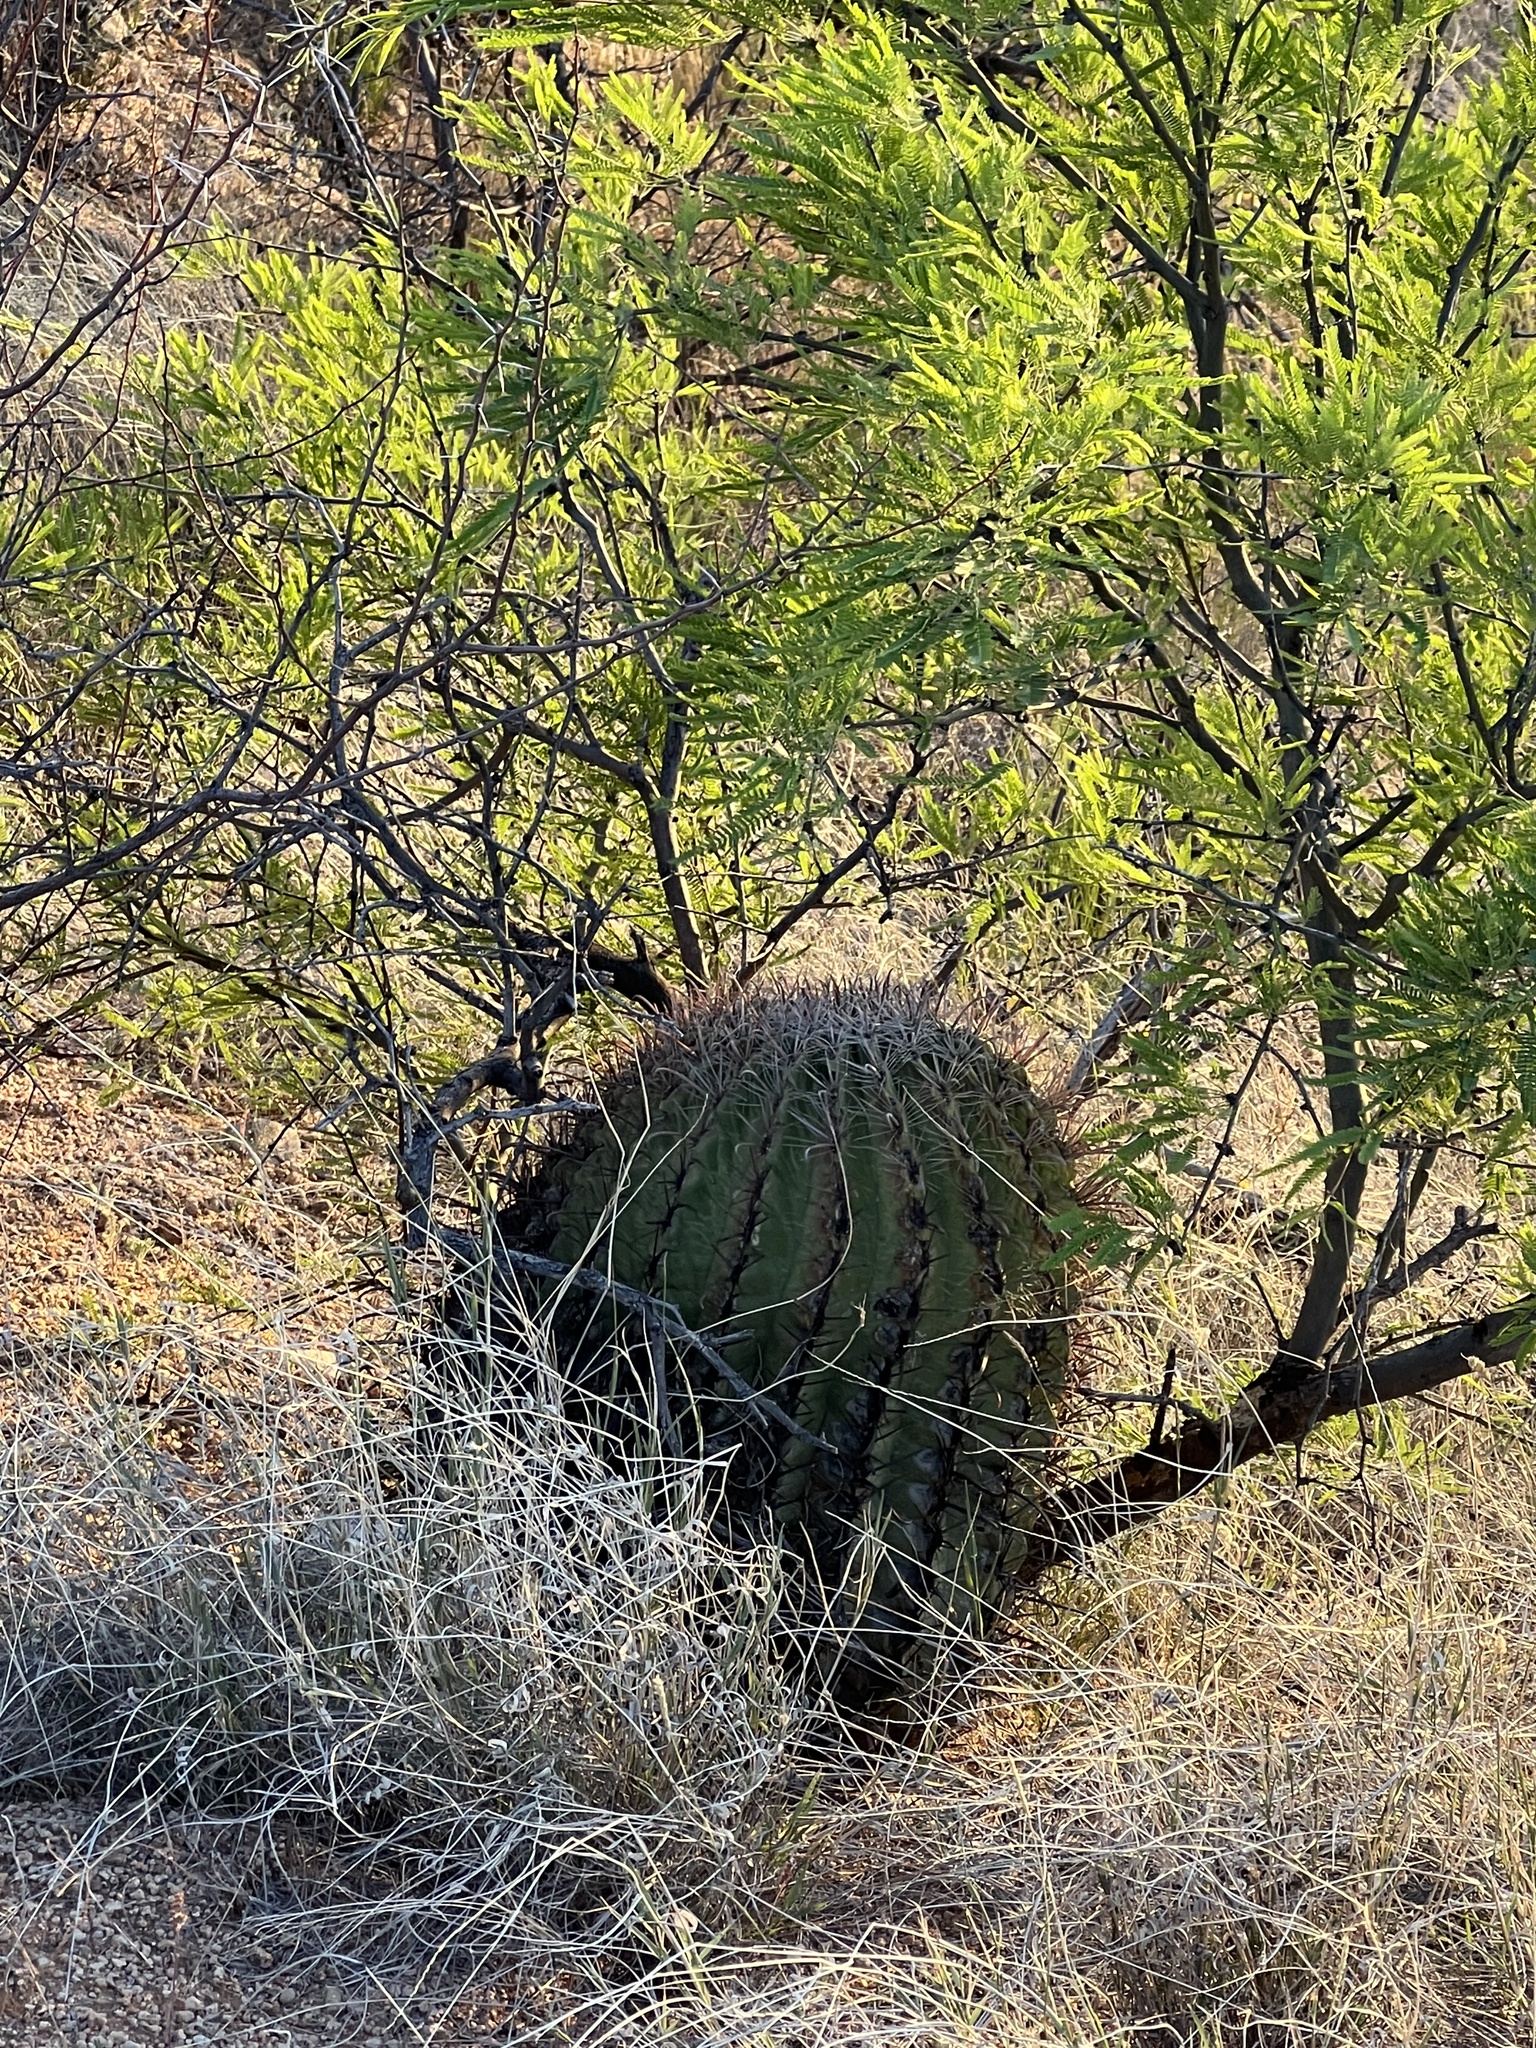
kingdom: Plantae
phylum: Tracheophyta
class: Magnoliopsida
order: Caryophyllales
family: Cactaceae
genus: Ferocactus
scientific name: Ferocactus wislizeni
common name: Candy barrel cactus
